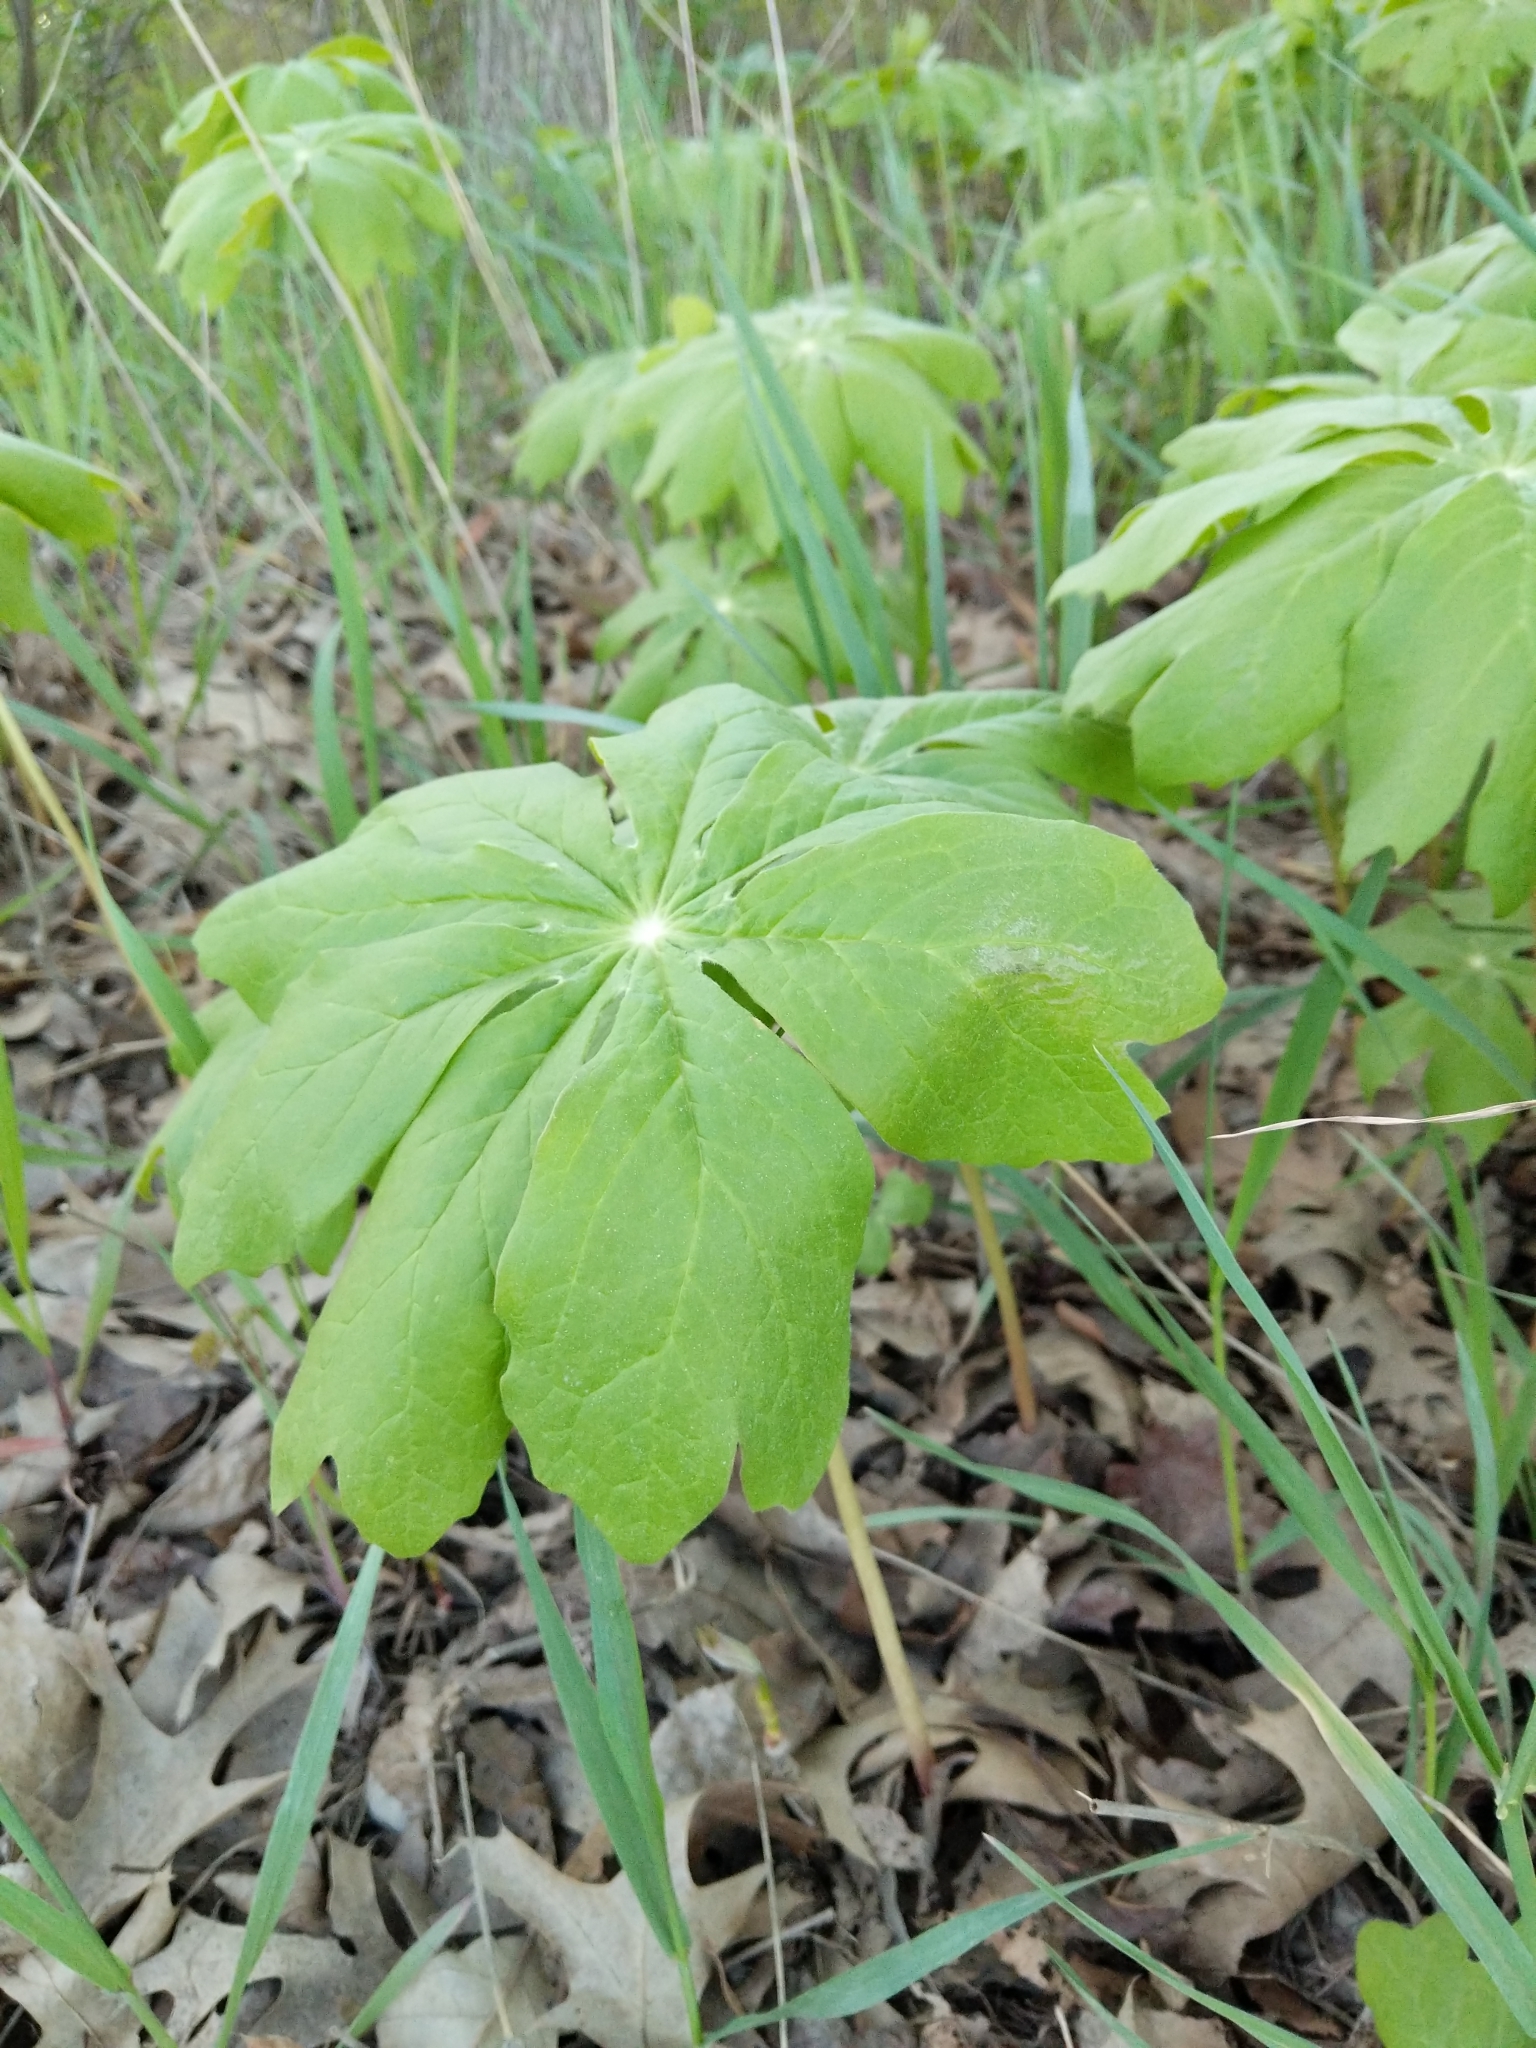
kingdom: Plantae
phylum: Tracheophyta
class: Magnoliopsida
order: Ranunculales
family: Berberidaceae
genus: Podophyllum
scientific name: Podophyllum peltatum
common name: Wild mandrake
